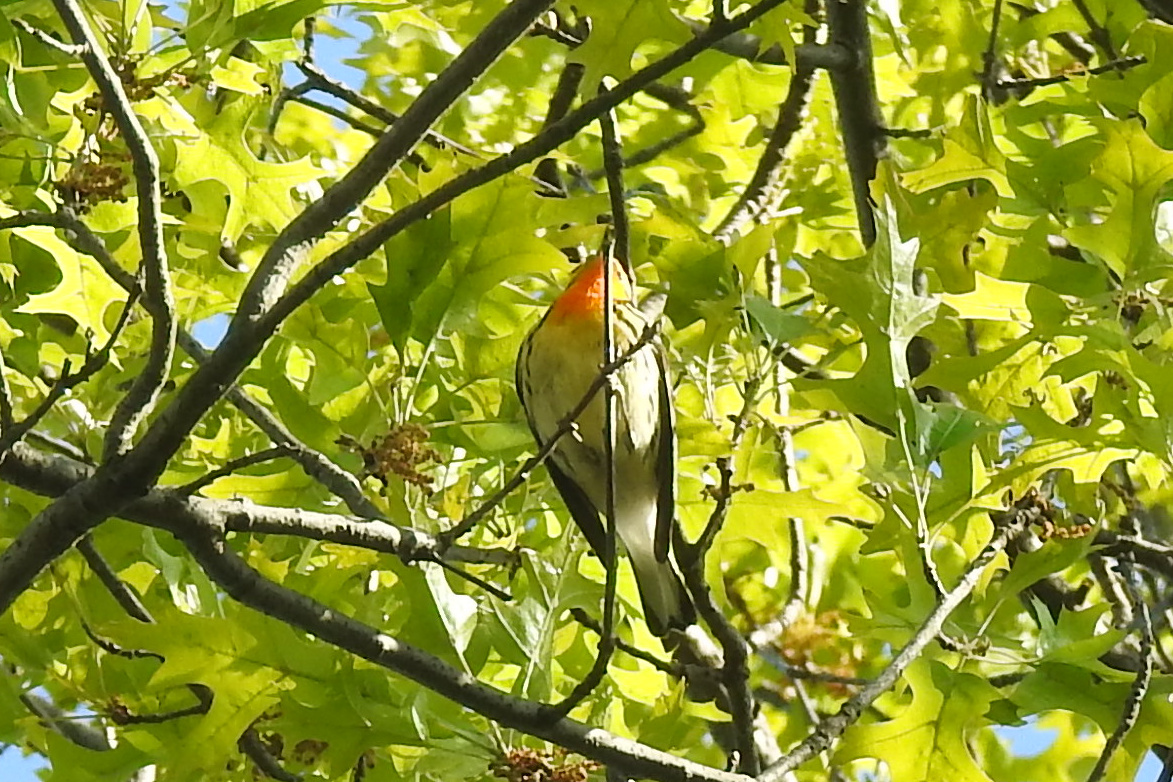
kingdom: Animalia
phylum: Chordata
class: Aves
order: Passeriformes
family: Parulidae
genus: Setophaga
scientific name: Setophaga fusca
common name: Blackburnian warbler
